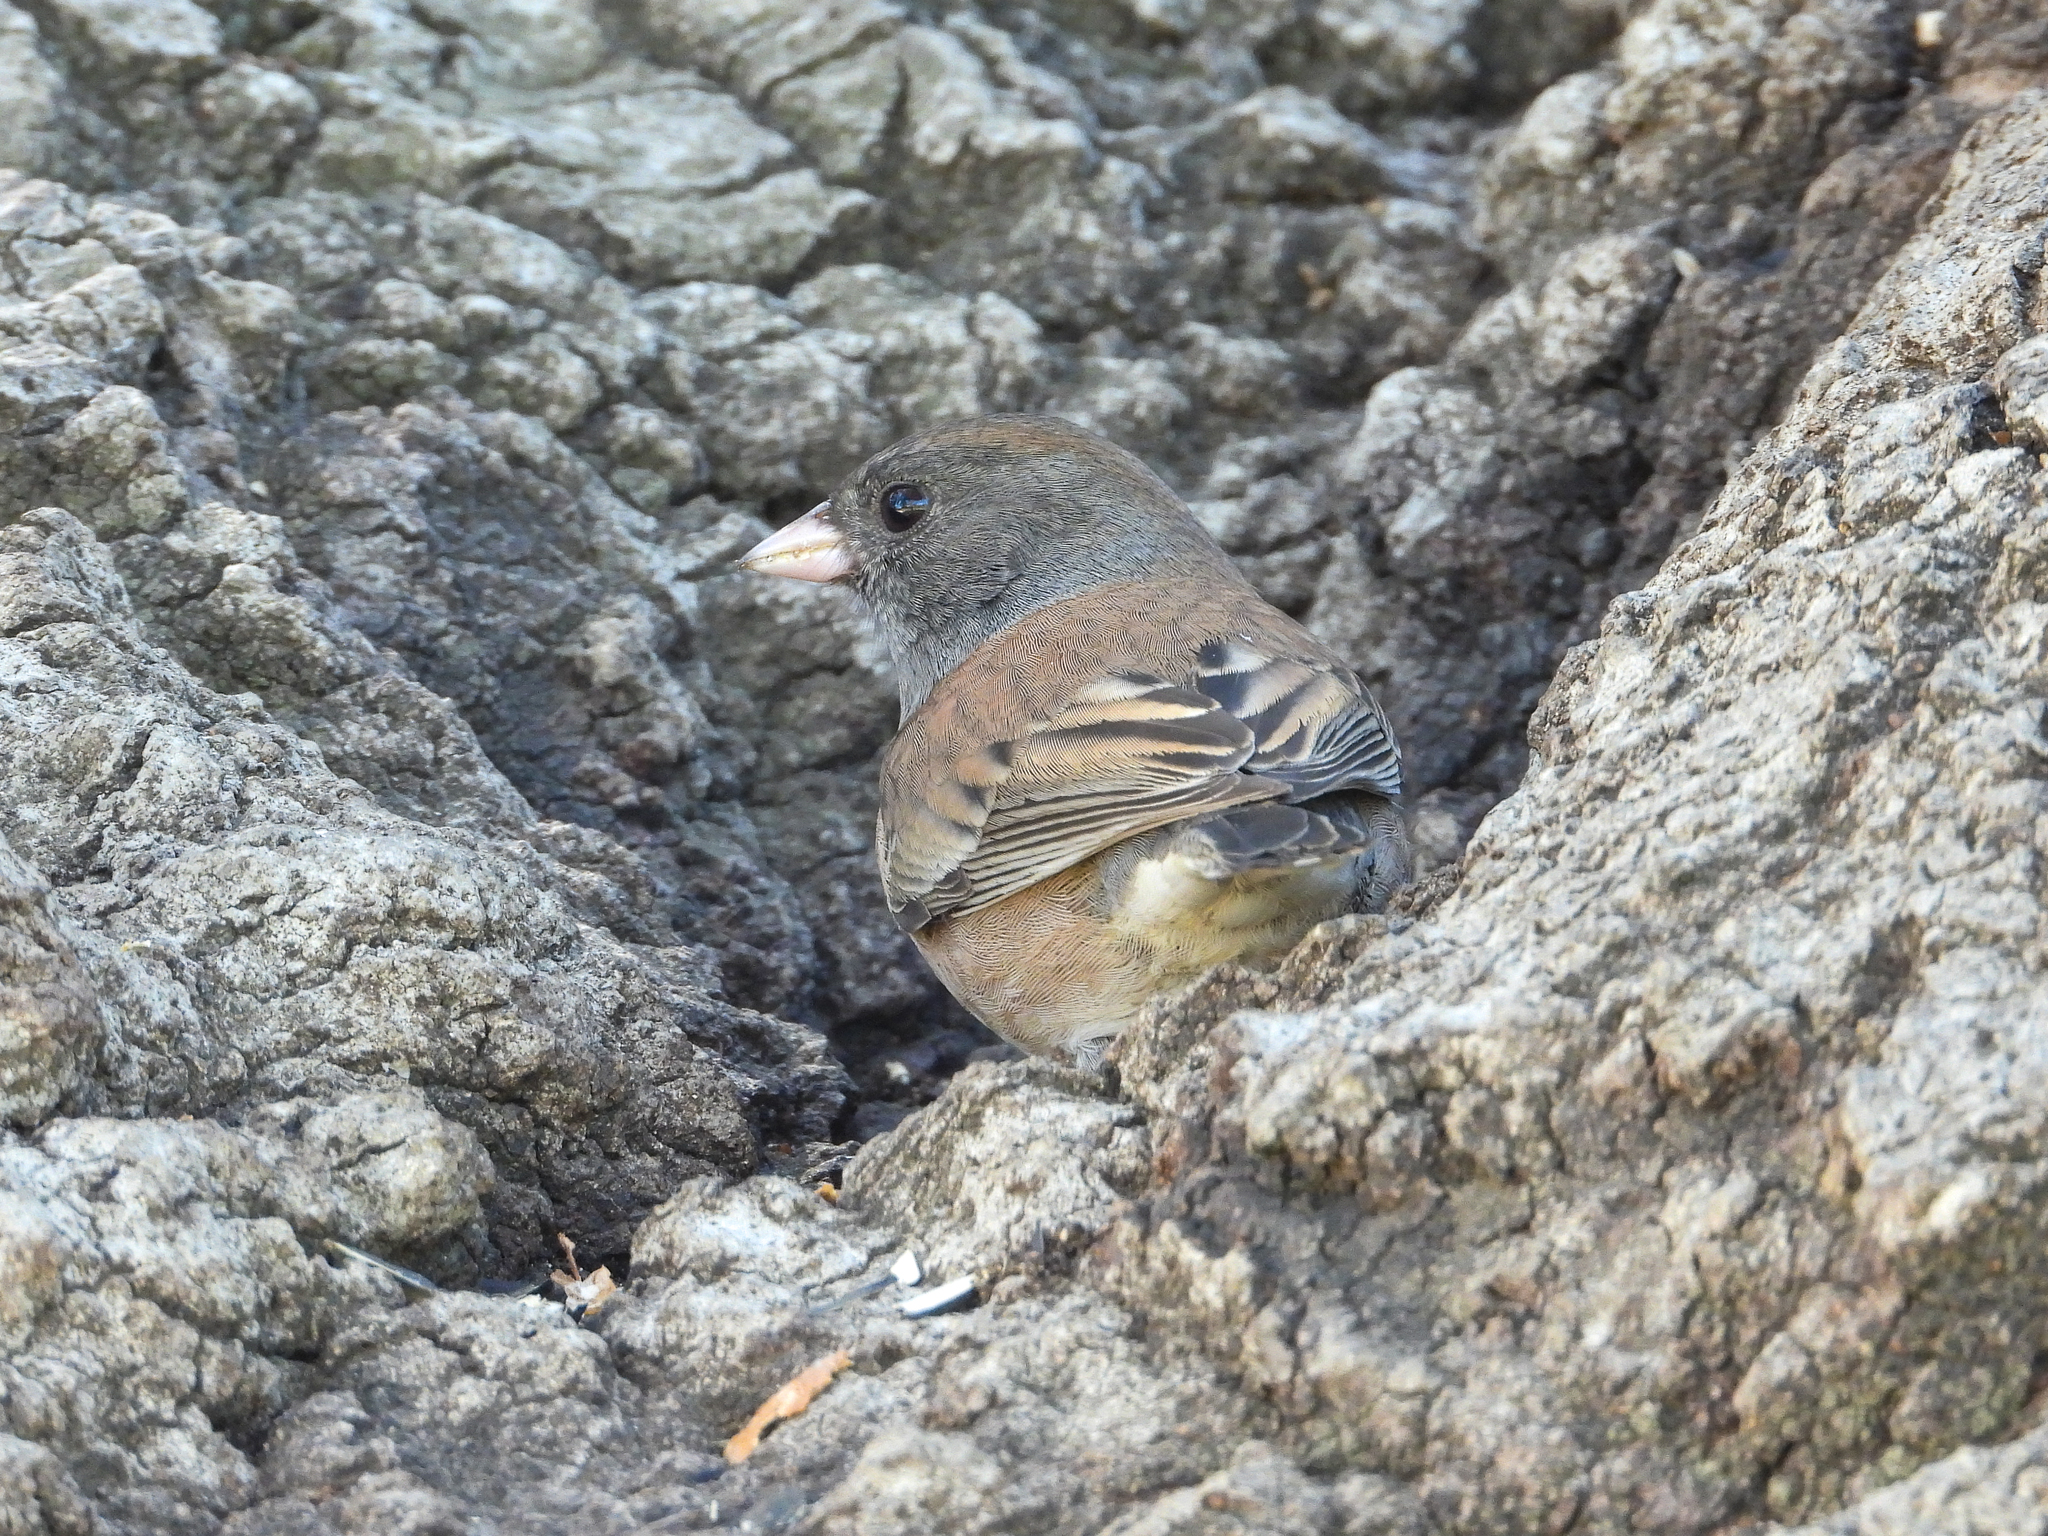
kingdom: Animalia
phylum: Chordata
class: Aves
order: Passeriformes
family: Passerellidae
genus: Junco
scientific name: Junco hyemalis
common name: Dark-eyed junco
